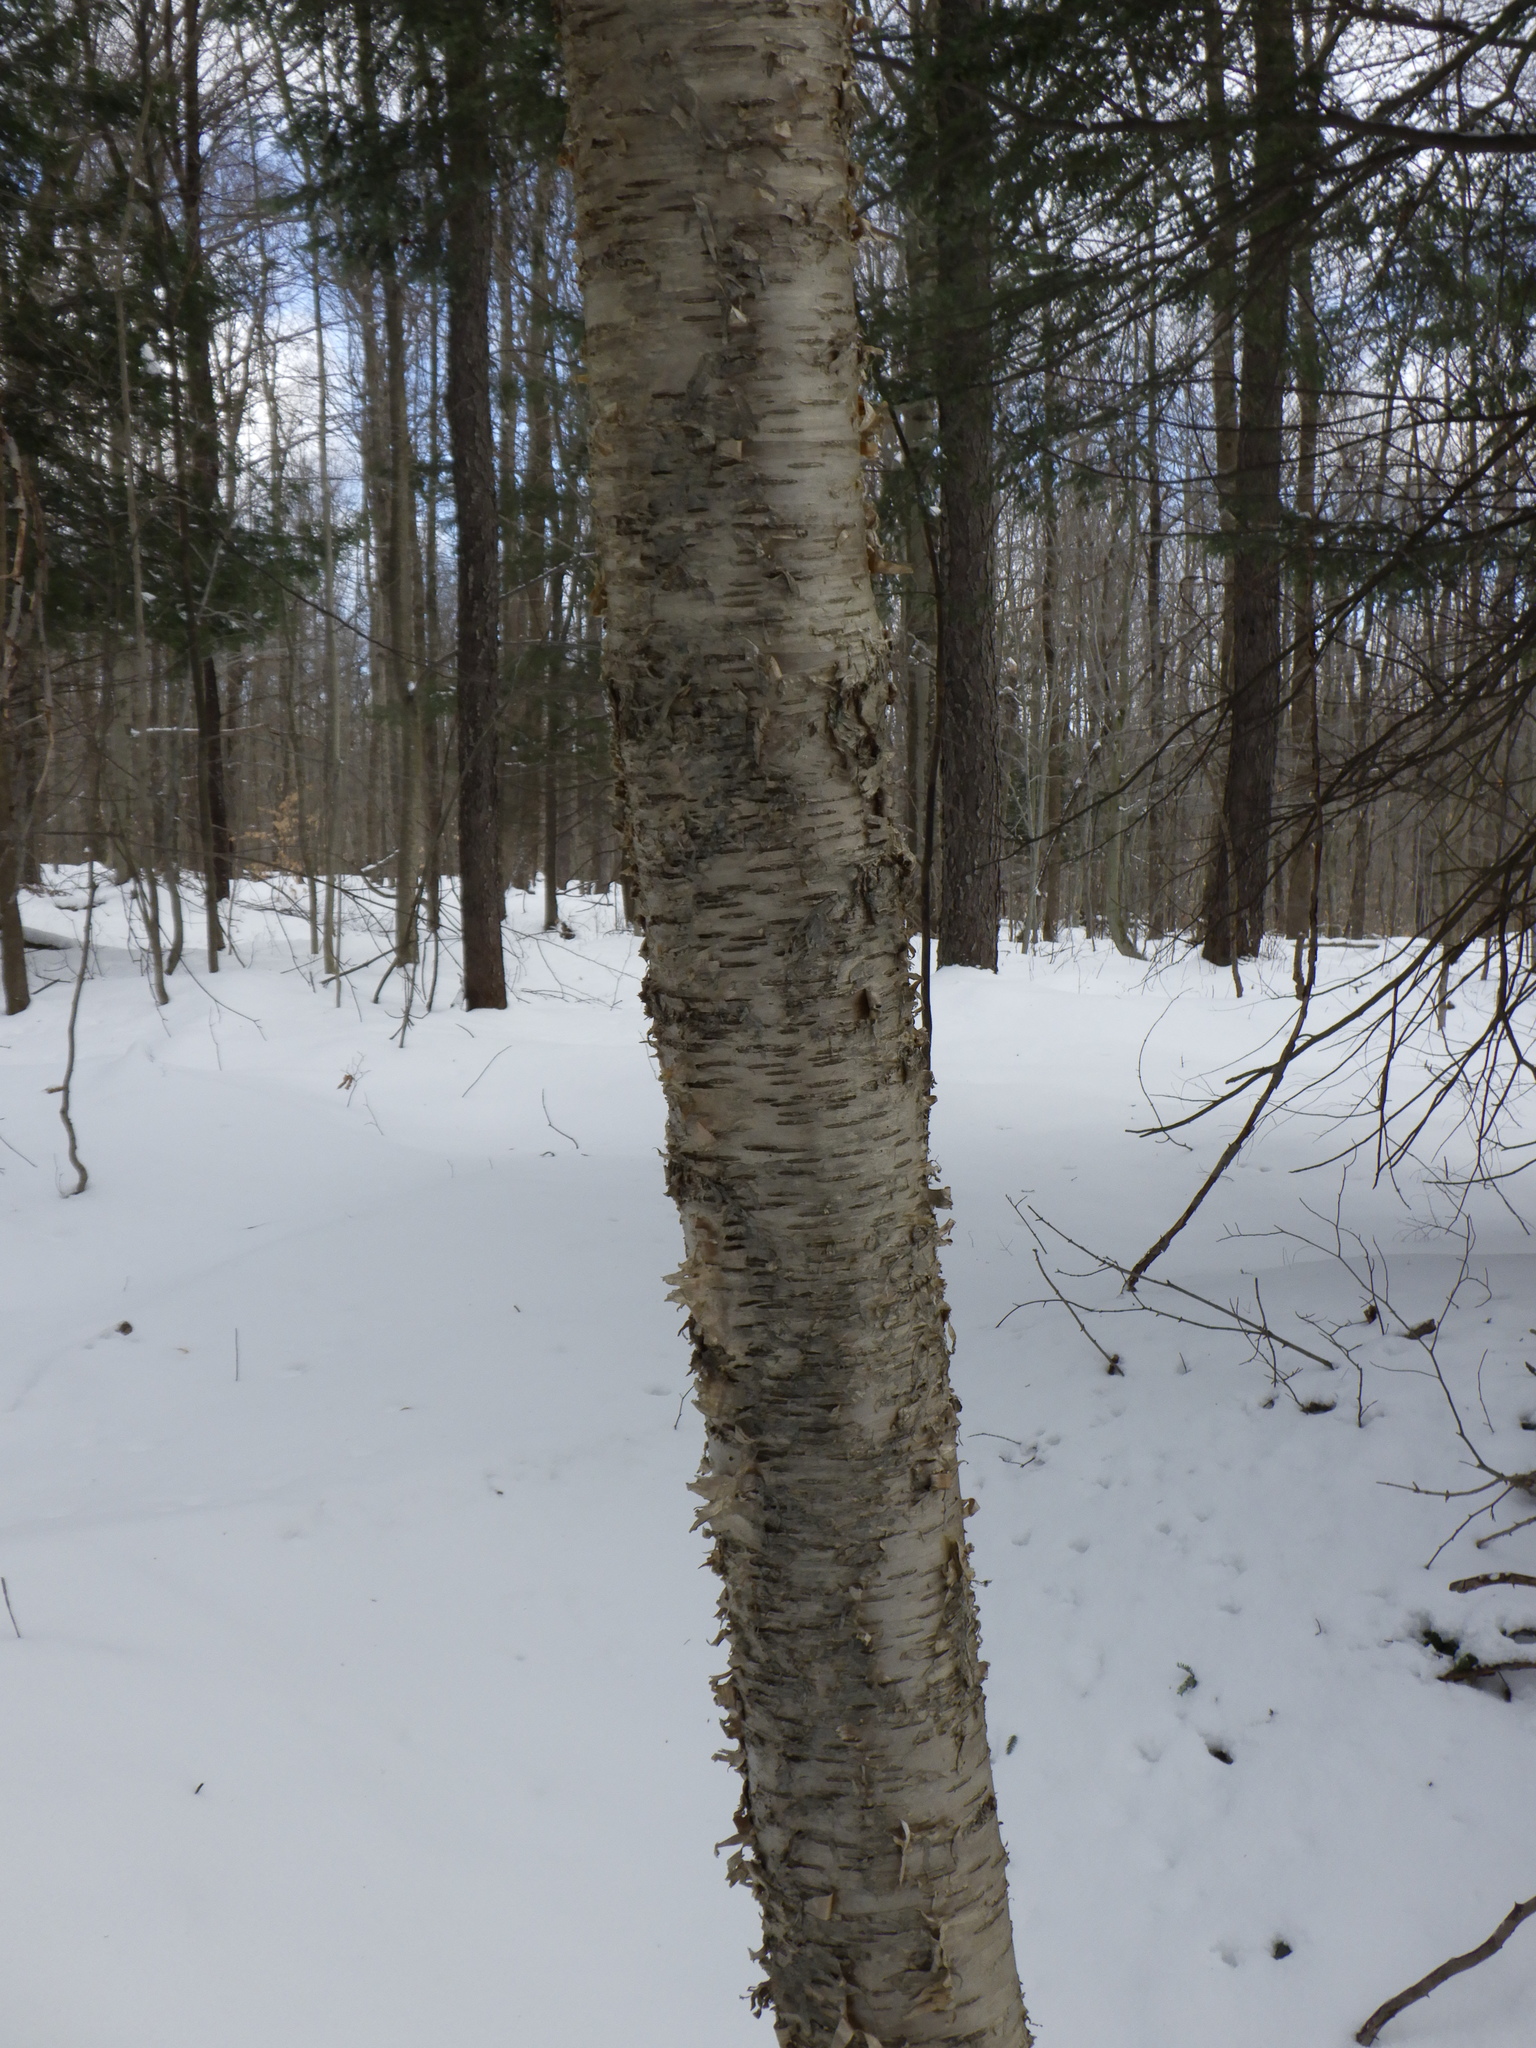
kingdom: Plantae
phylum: Tracheophyta
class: Magnoliopsida
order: Fagales
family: Betulaceae
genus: Betula
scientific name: Betula alleghaniensis
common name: Yellow birch
